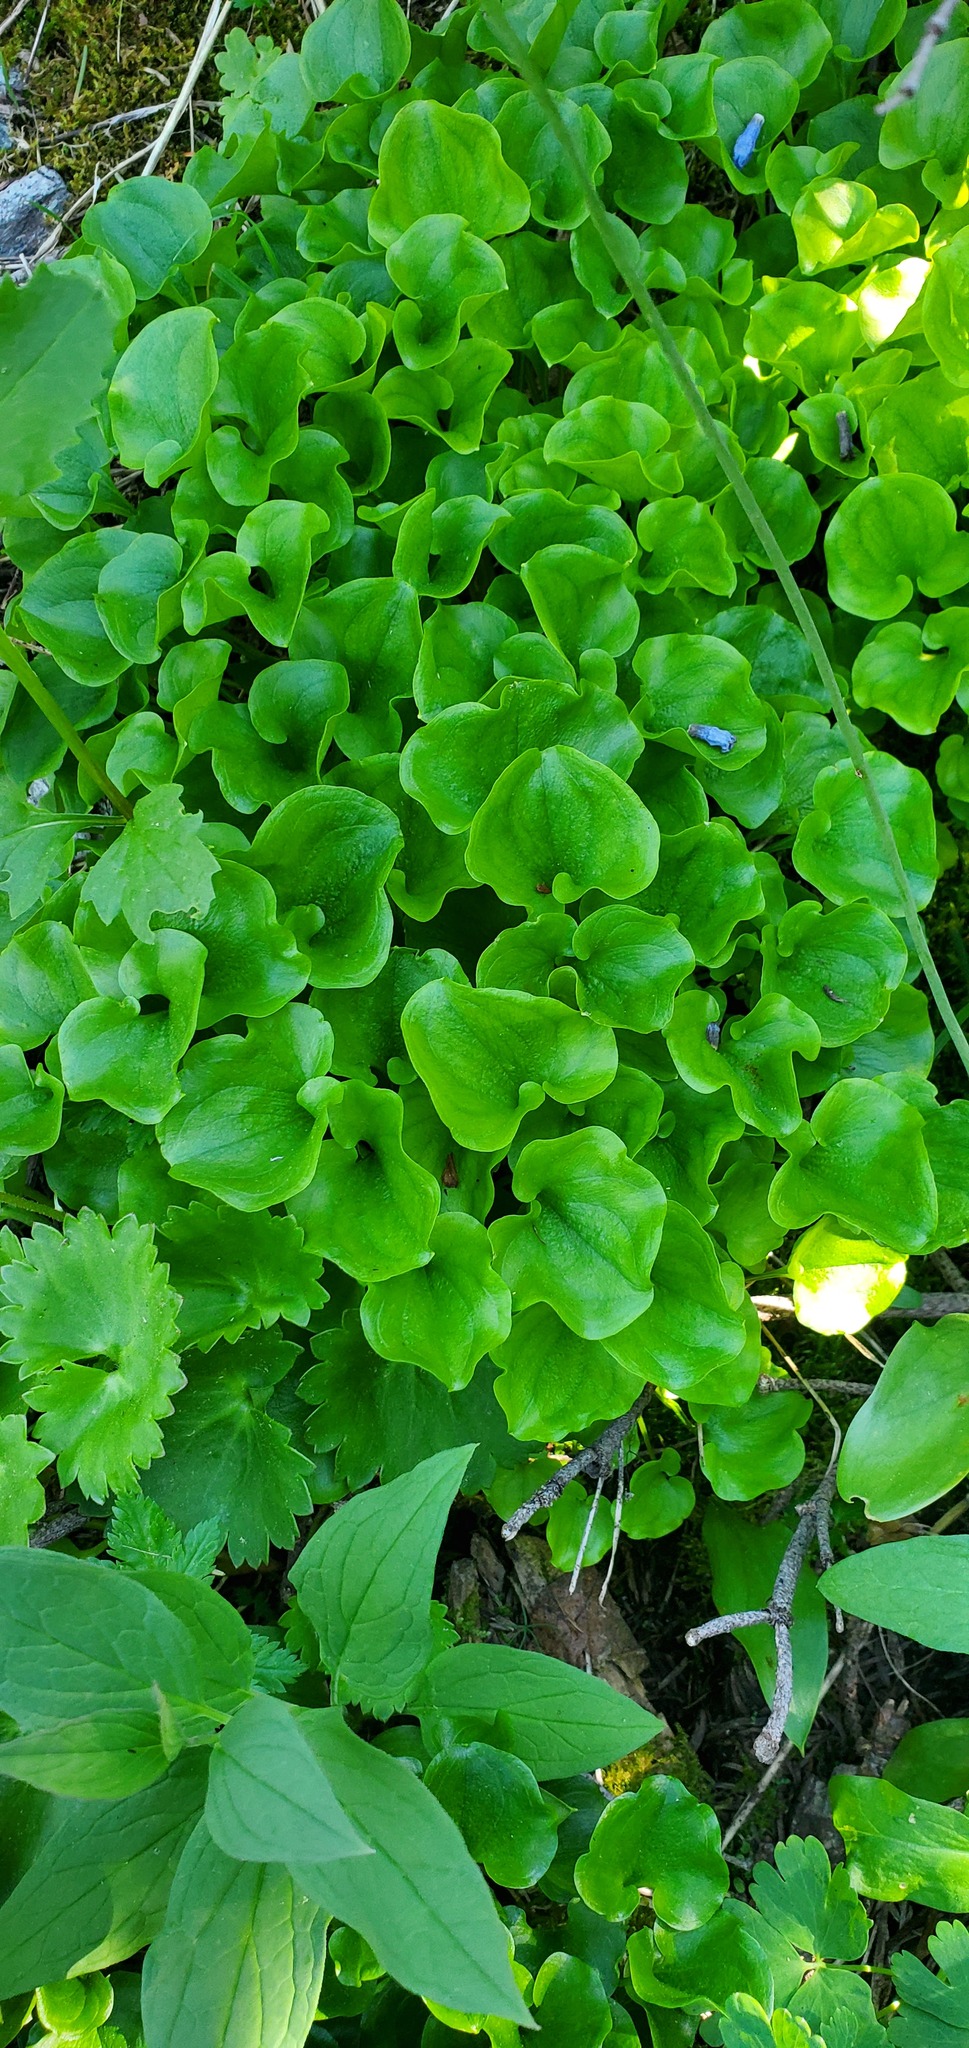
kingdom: Plantae
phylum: Tracheophyta
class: Magnoliopsida
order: Celastrales
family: Parnassiaceae
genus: Parnassia
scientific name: Parnassia fimbriata
